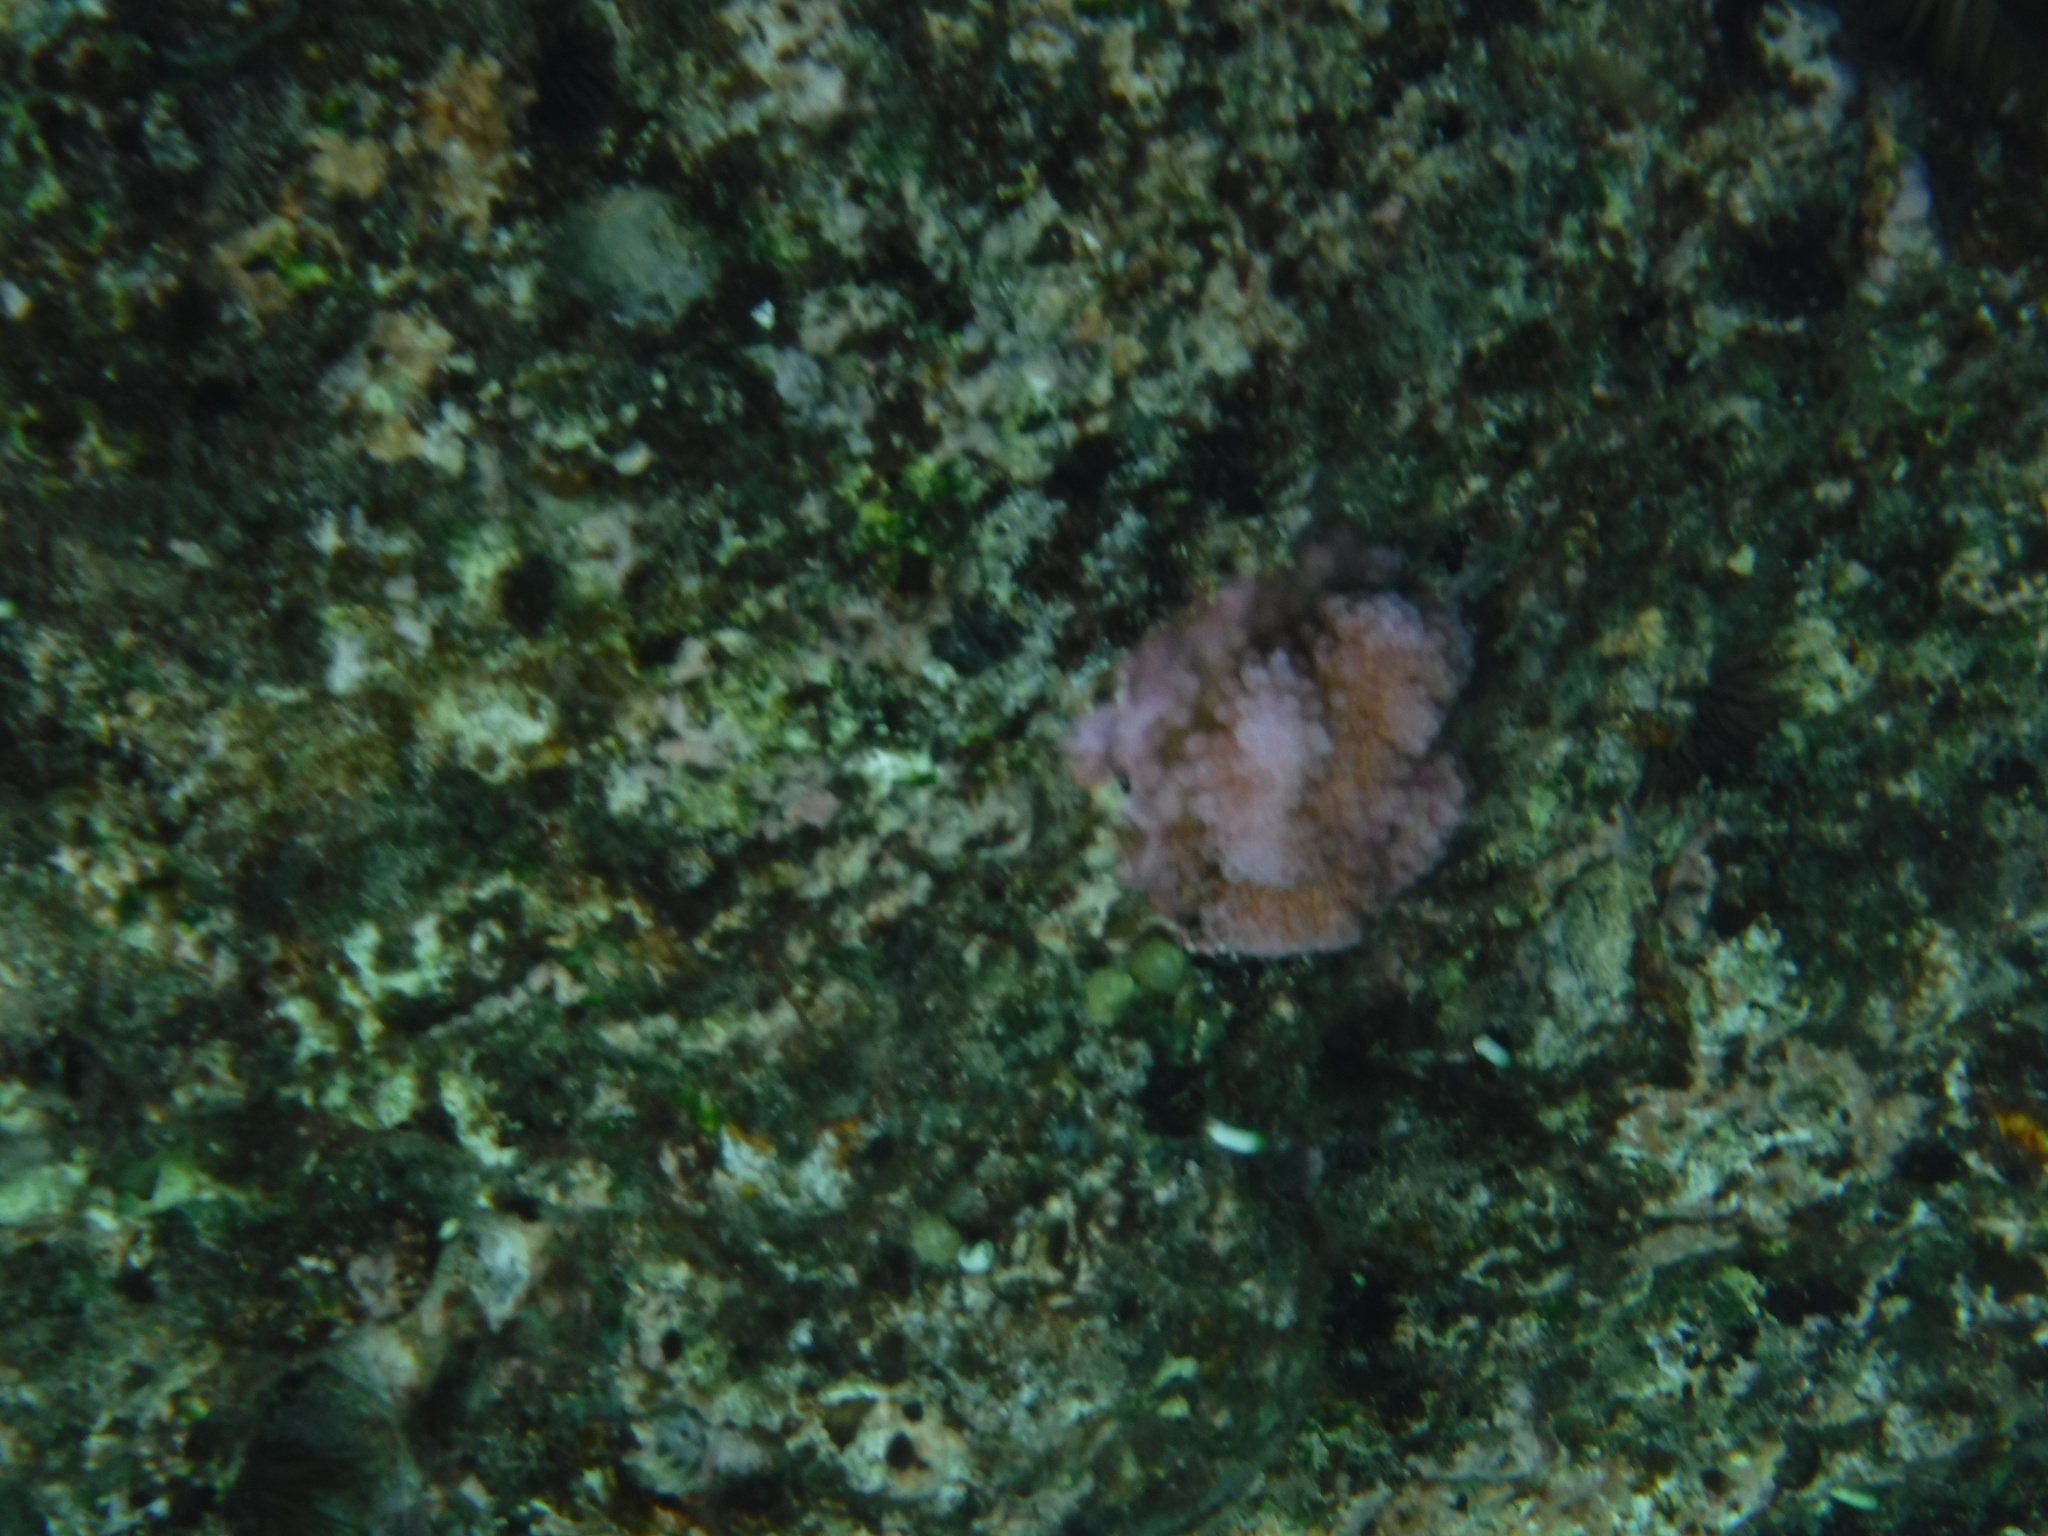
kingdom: Animalia
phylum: Cnidaria
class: Anthozoa
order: Scleractinia
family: Pocilloporidae
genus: Pocillopora
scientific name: Pocillopora
